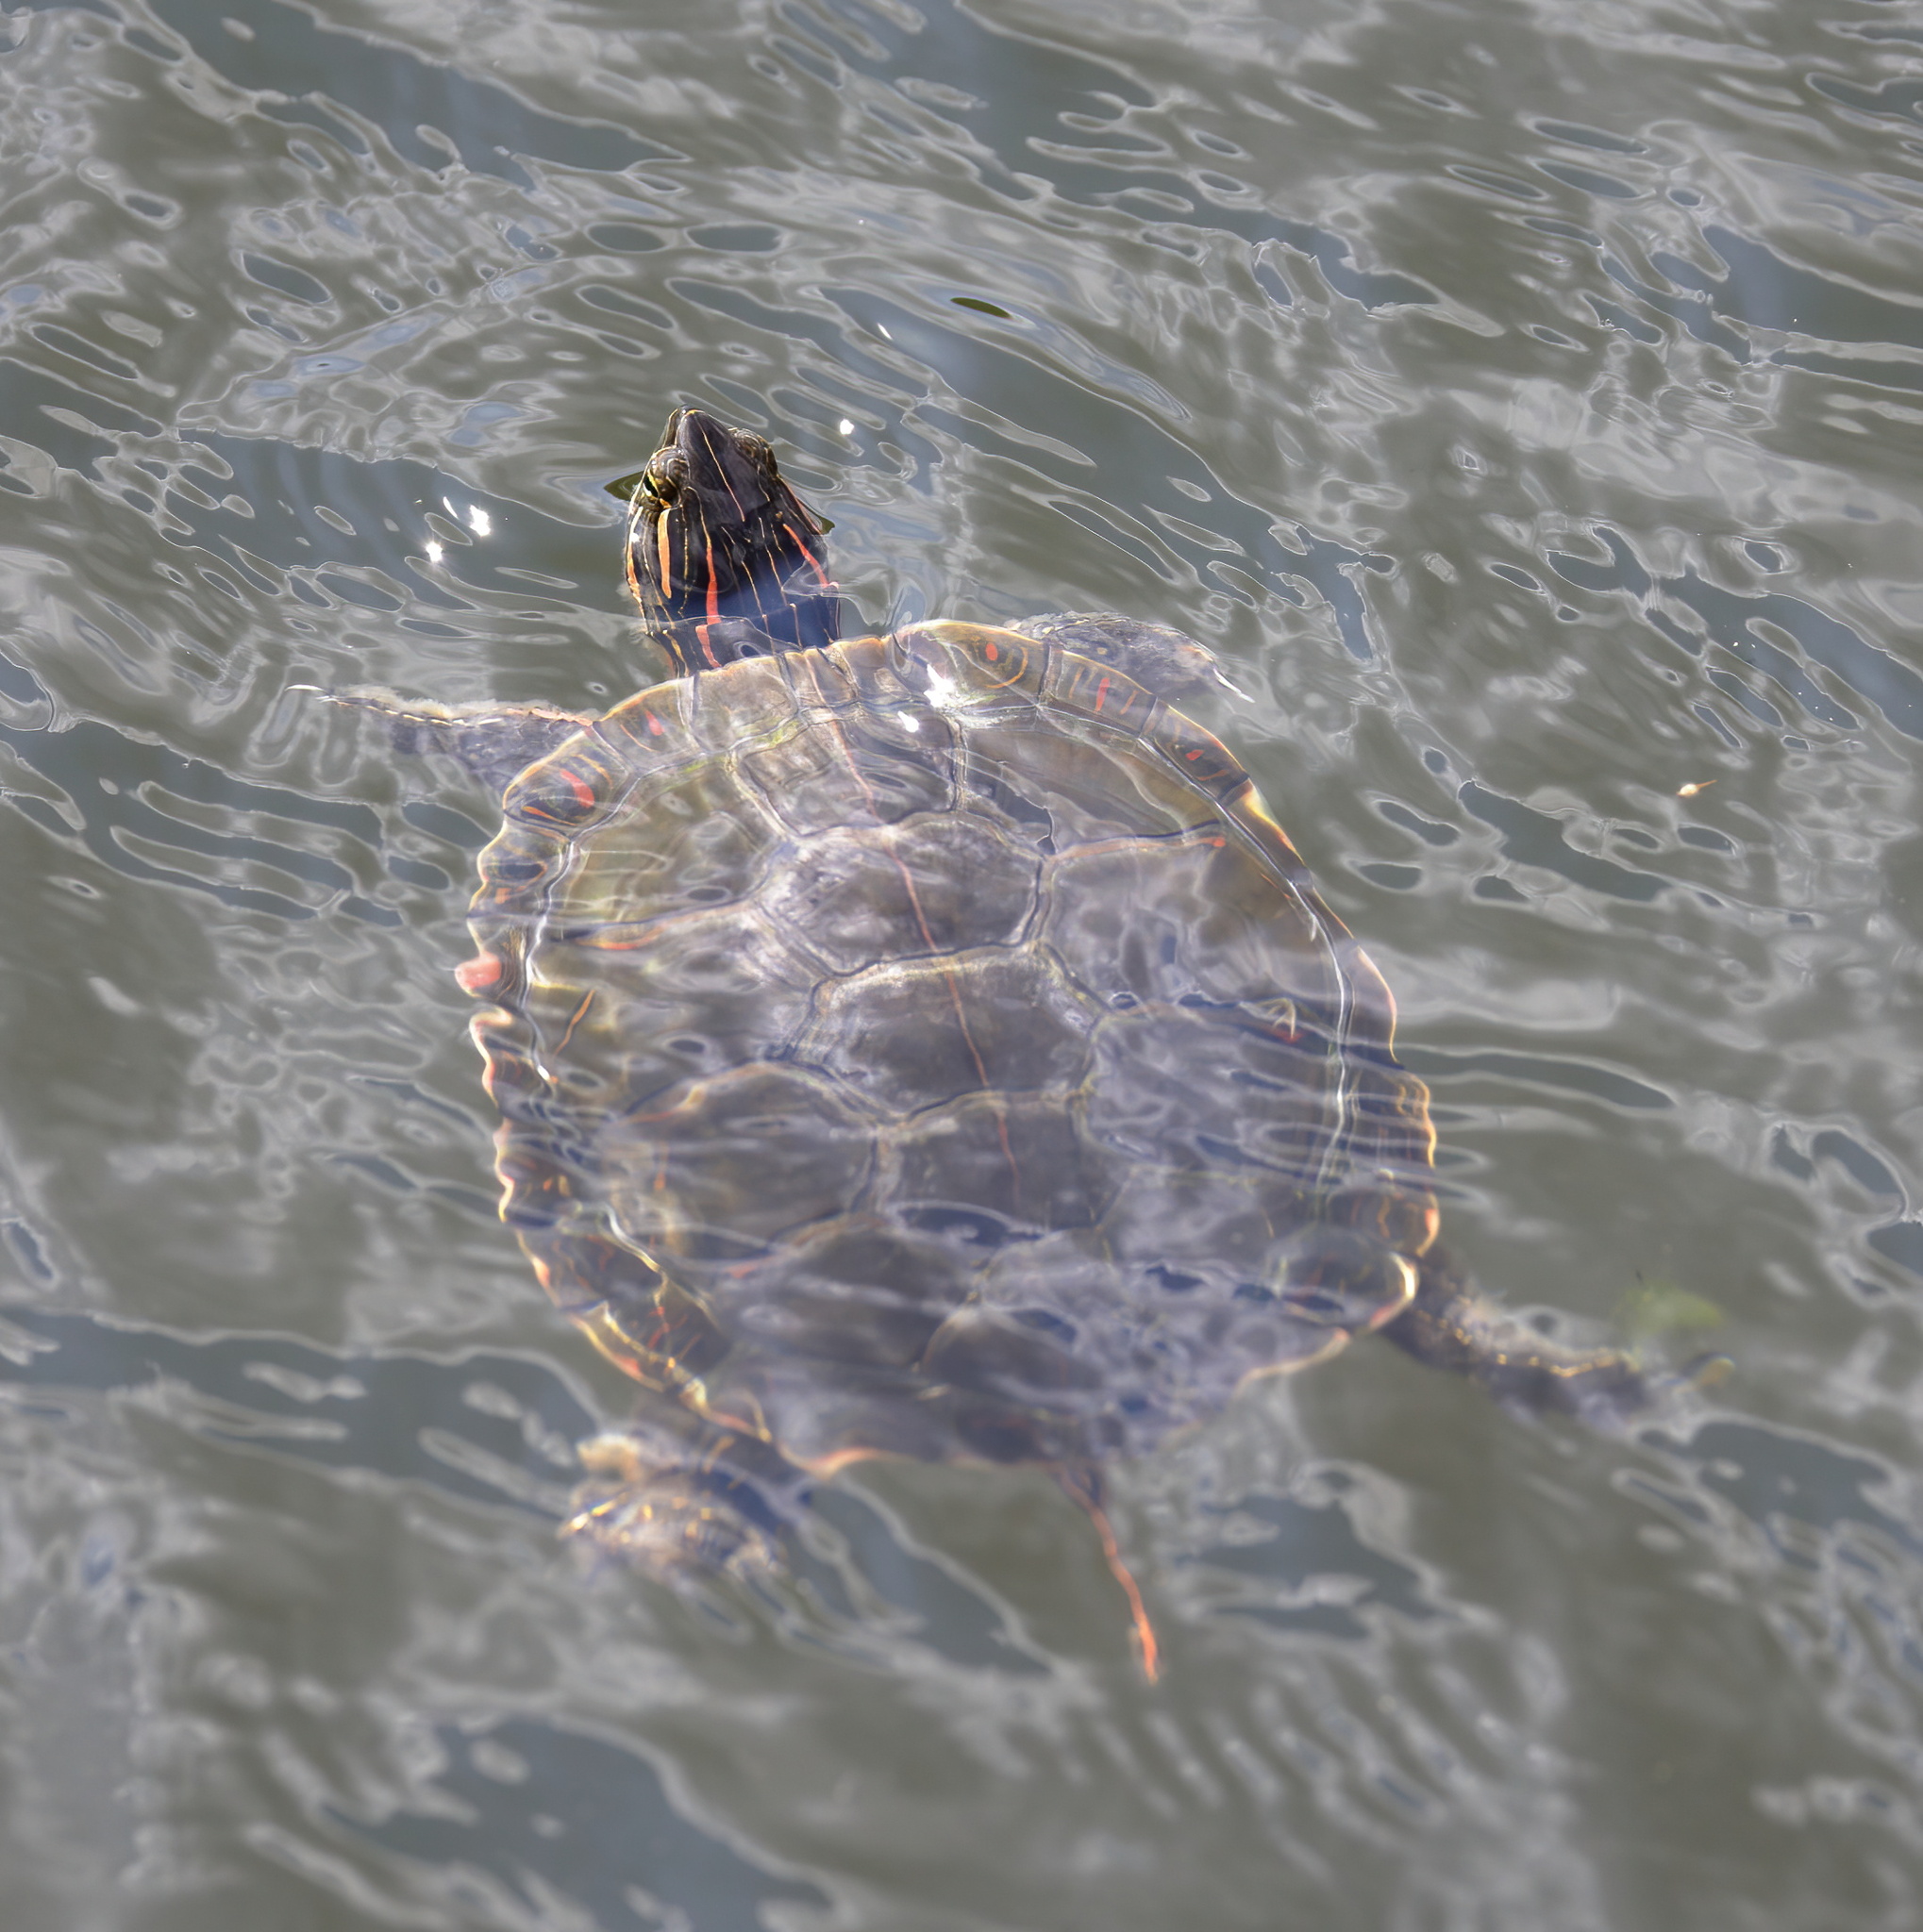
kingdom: Animalia
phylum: Chordata
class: Testudines
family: Emydidae
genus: Chrysemys
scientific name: Chrysemys picta
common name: Painted turtle
